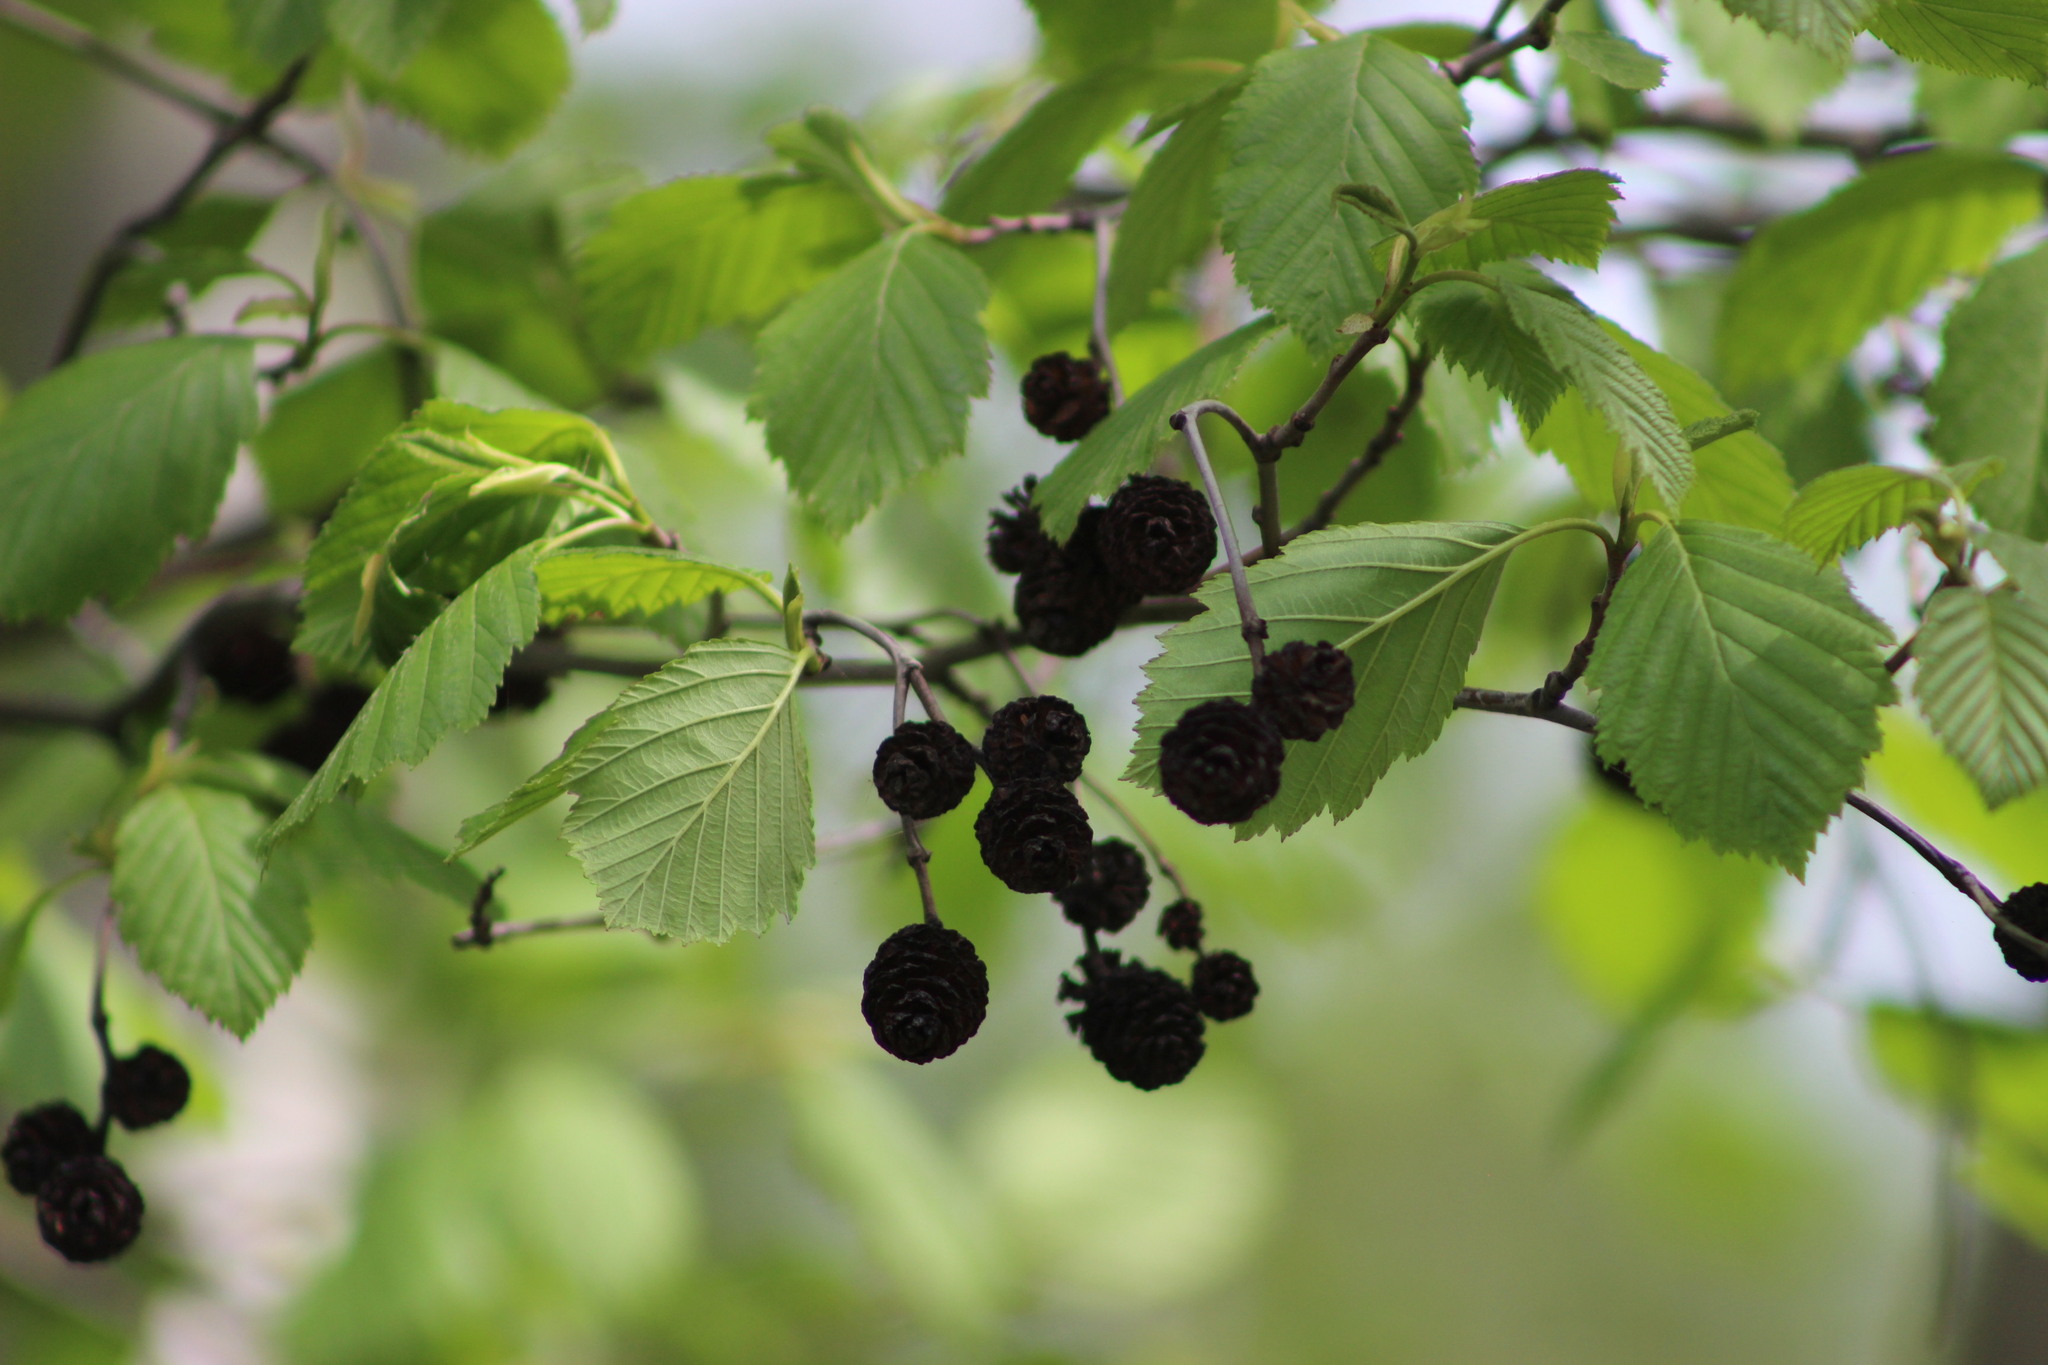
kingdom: Plantae
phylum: Tracheophyta
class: Magnoliopsida
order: Fagales
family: Betulaceae
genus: Alnus
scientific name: Alnus incana
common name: Grey alder
